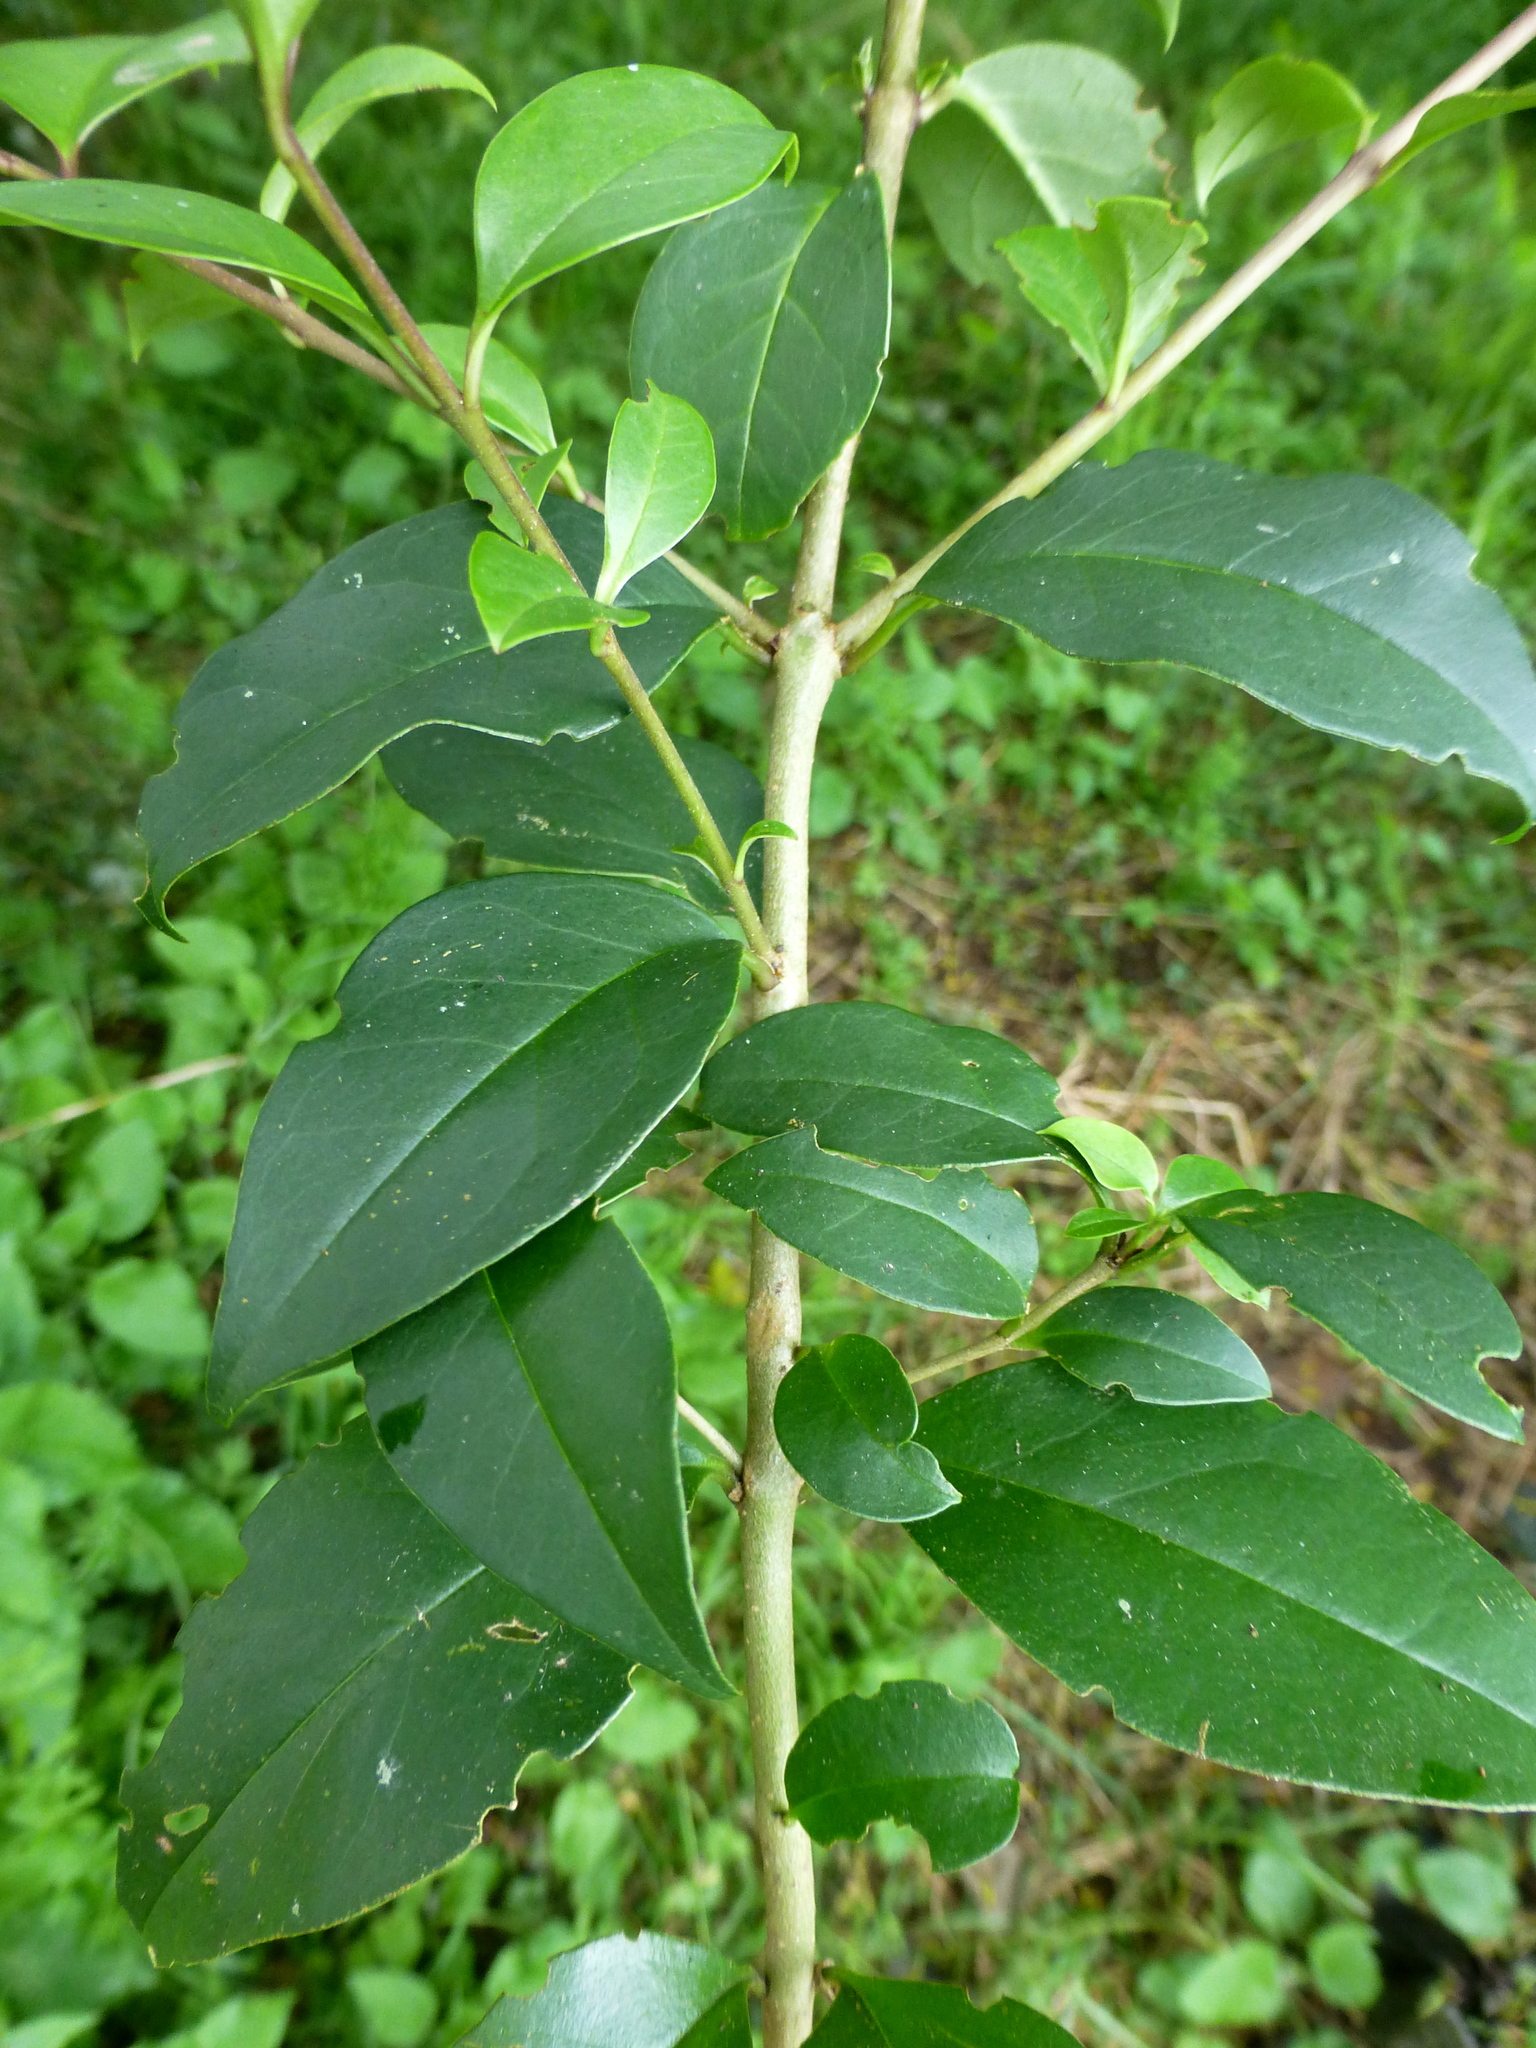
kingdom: Plantae
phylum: Tracheophyta
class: Magnoliopsida
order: Lamiales
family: Oleaceae
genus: Ligustrum
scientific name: Ligustrum lucidum
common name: Glossy privet
